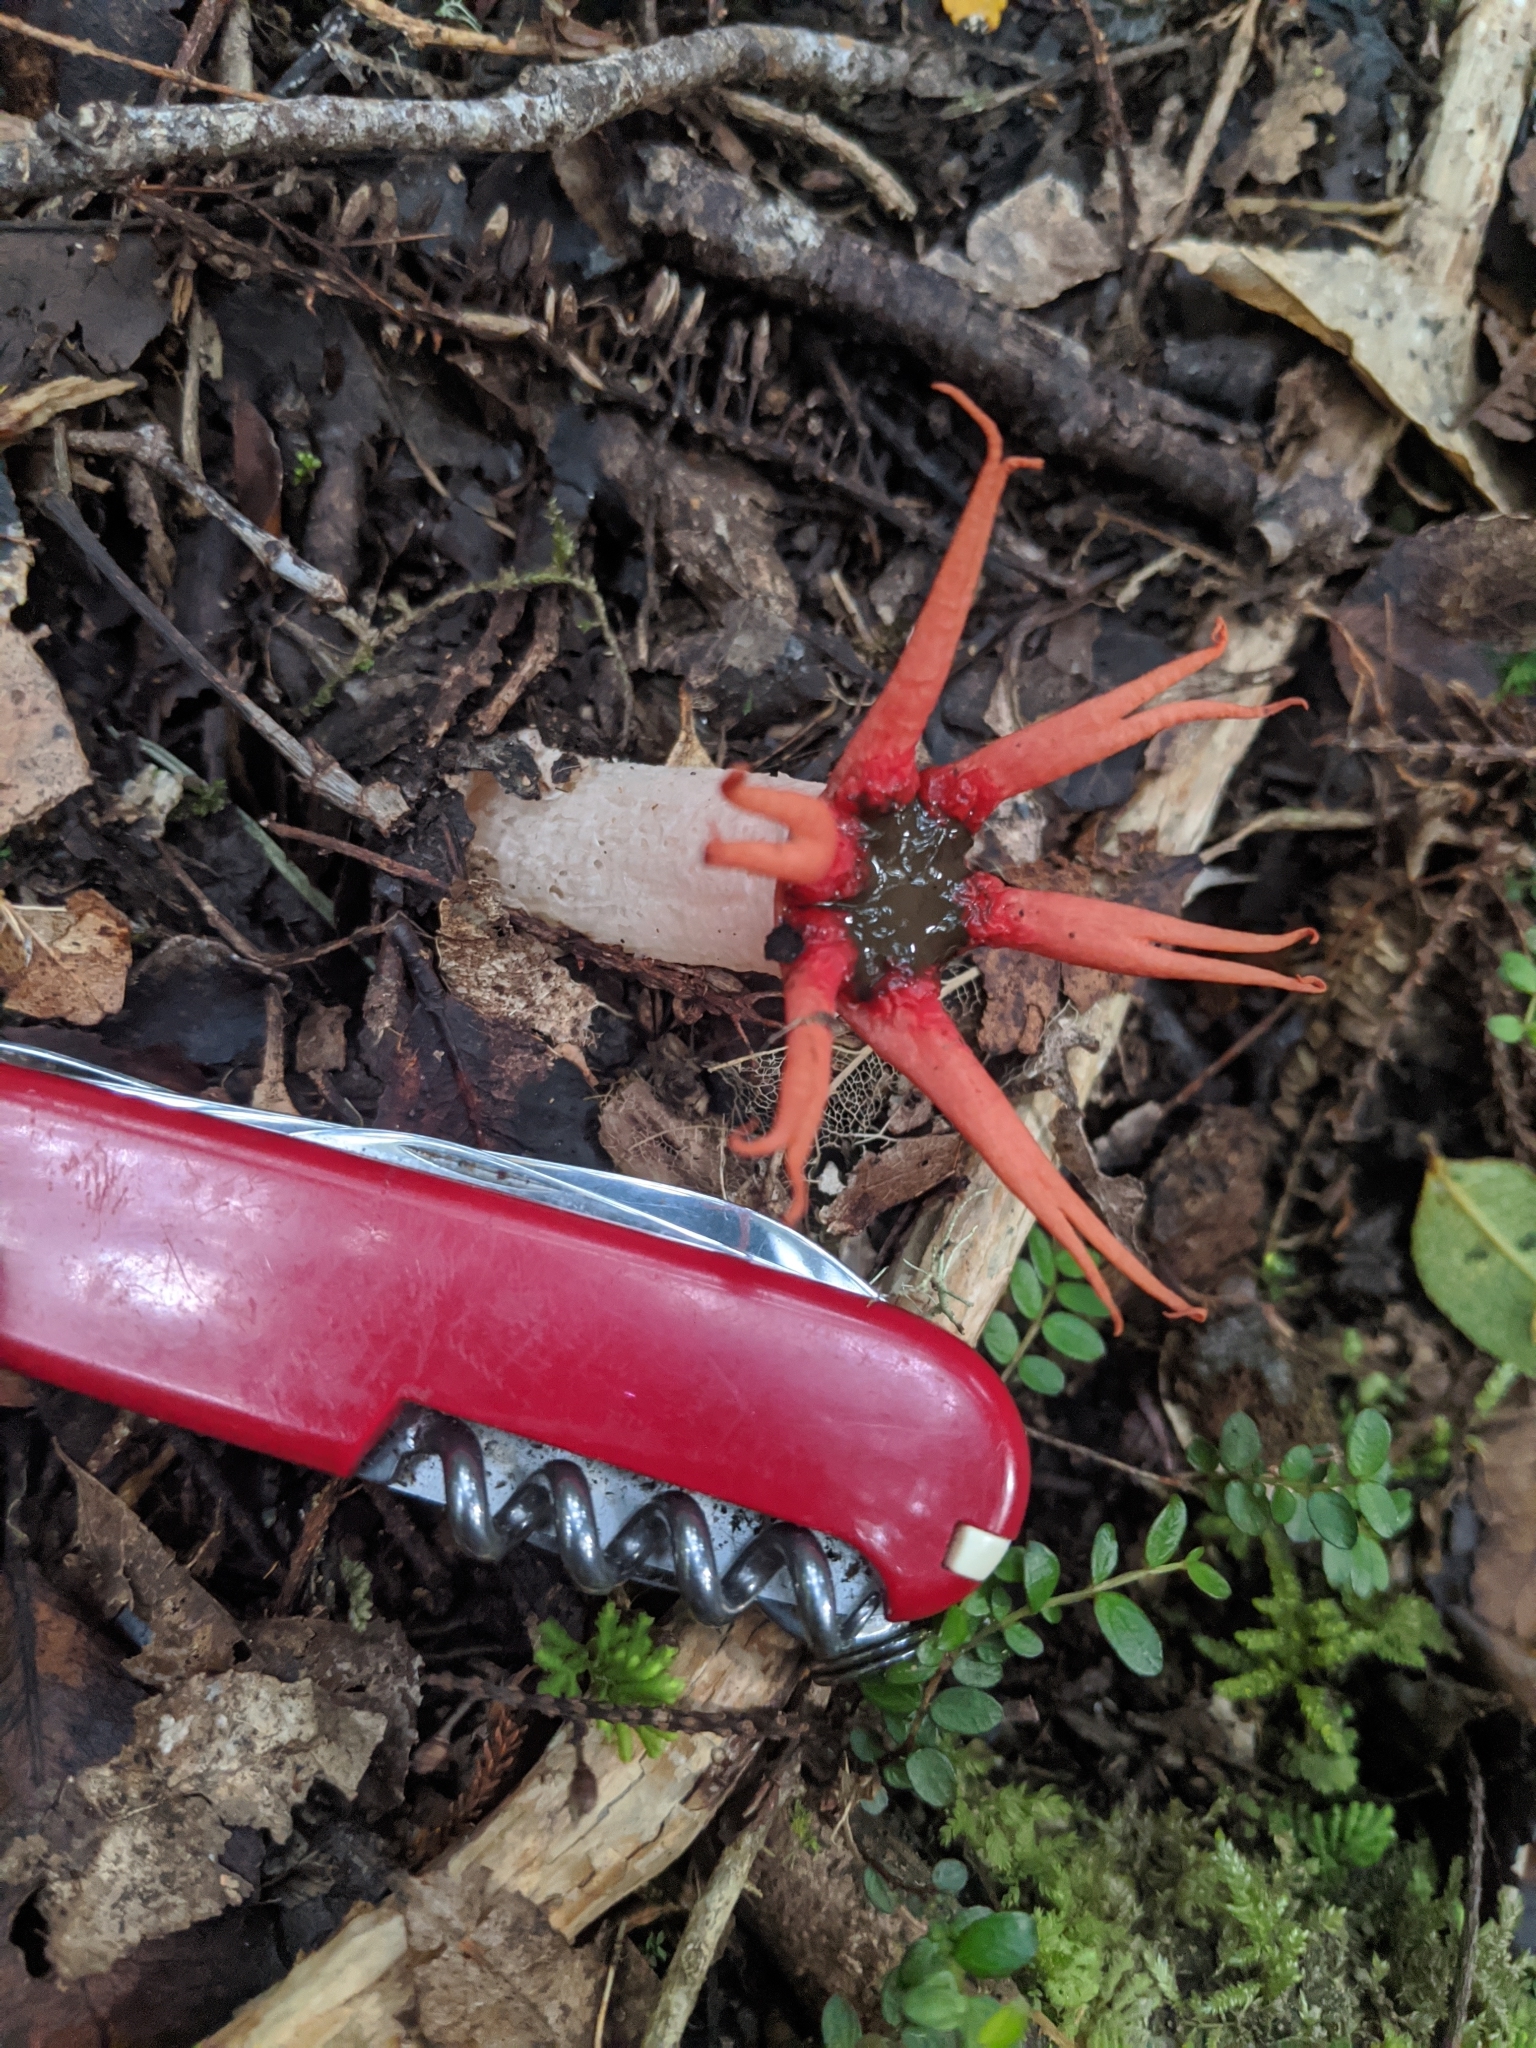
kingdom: Fungi
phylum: Basidiomycota
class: Agaricomycetes
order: Phallales
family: Phallaceae
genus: Aseroe
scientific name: Aseroe rubra
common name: Starfish fungus
